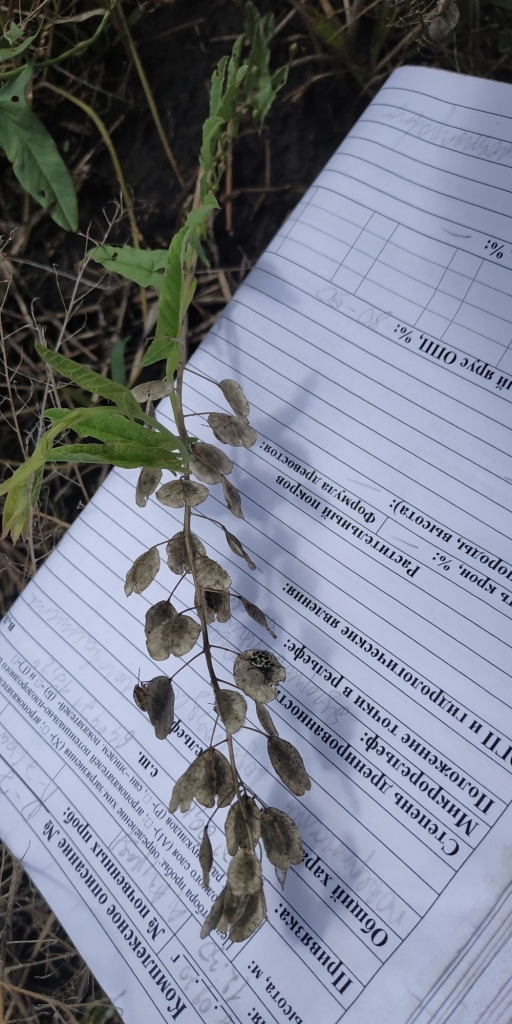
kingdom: Plantae
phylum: Tracheophyta
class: Magnoliopsida
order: Brassicales
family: Brassicaceae
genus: Thlaspi
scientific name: Thlaspi arvense
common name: Field pennycress
